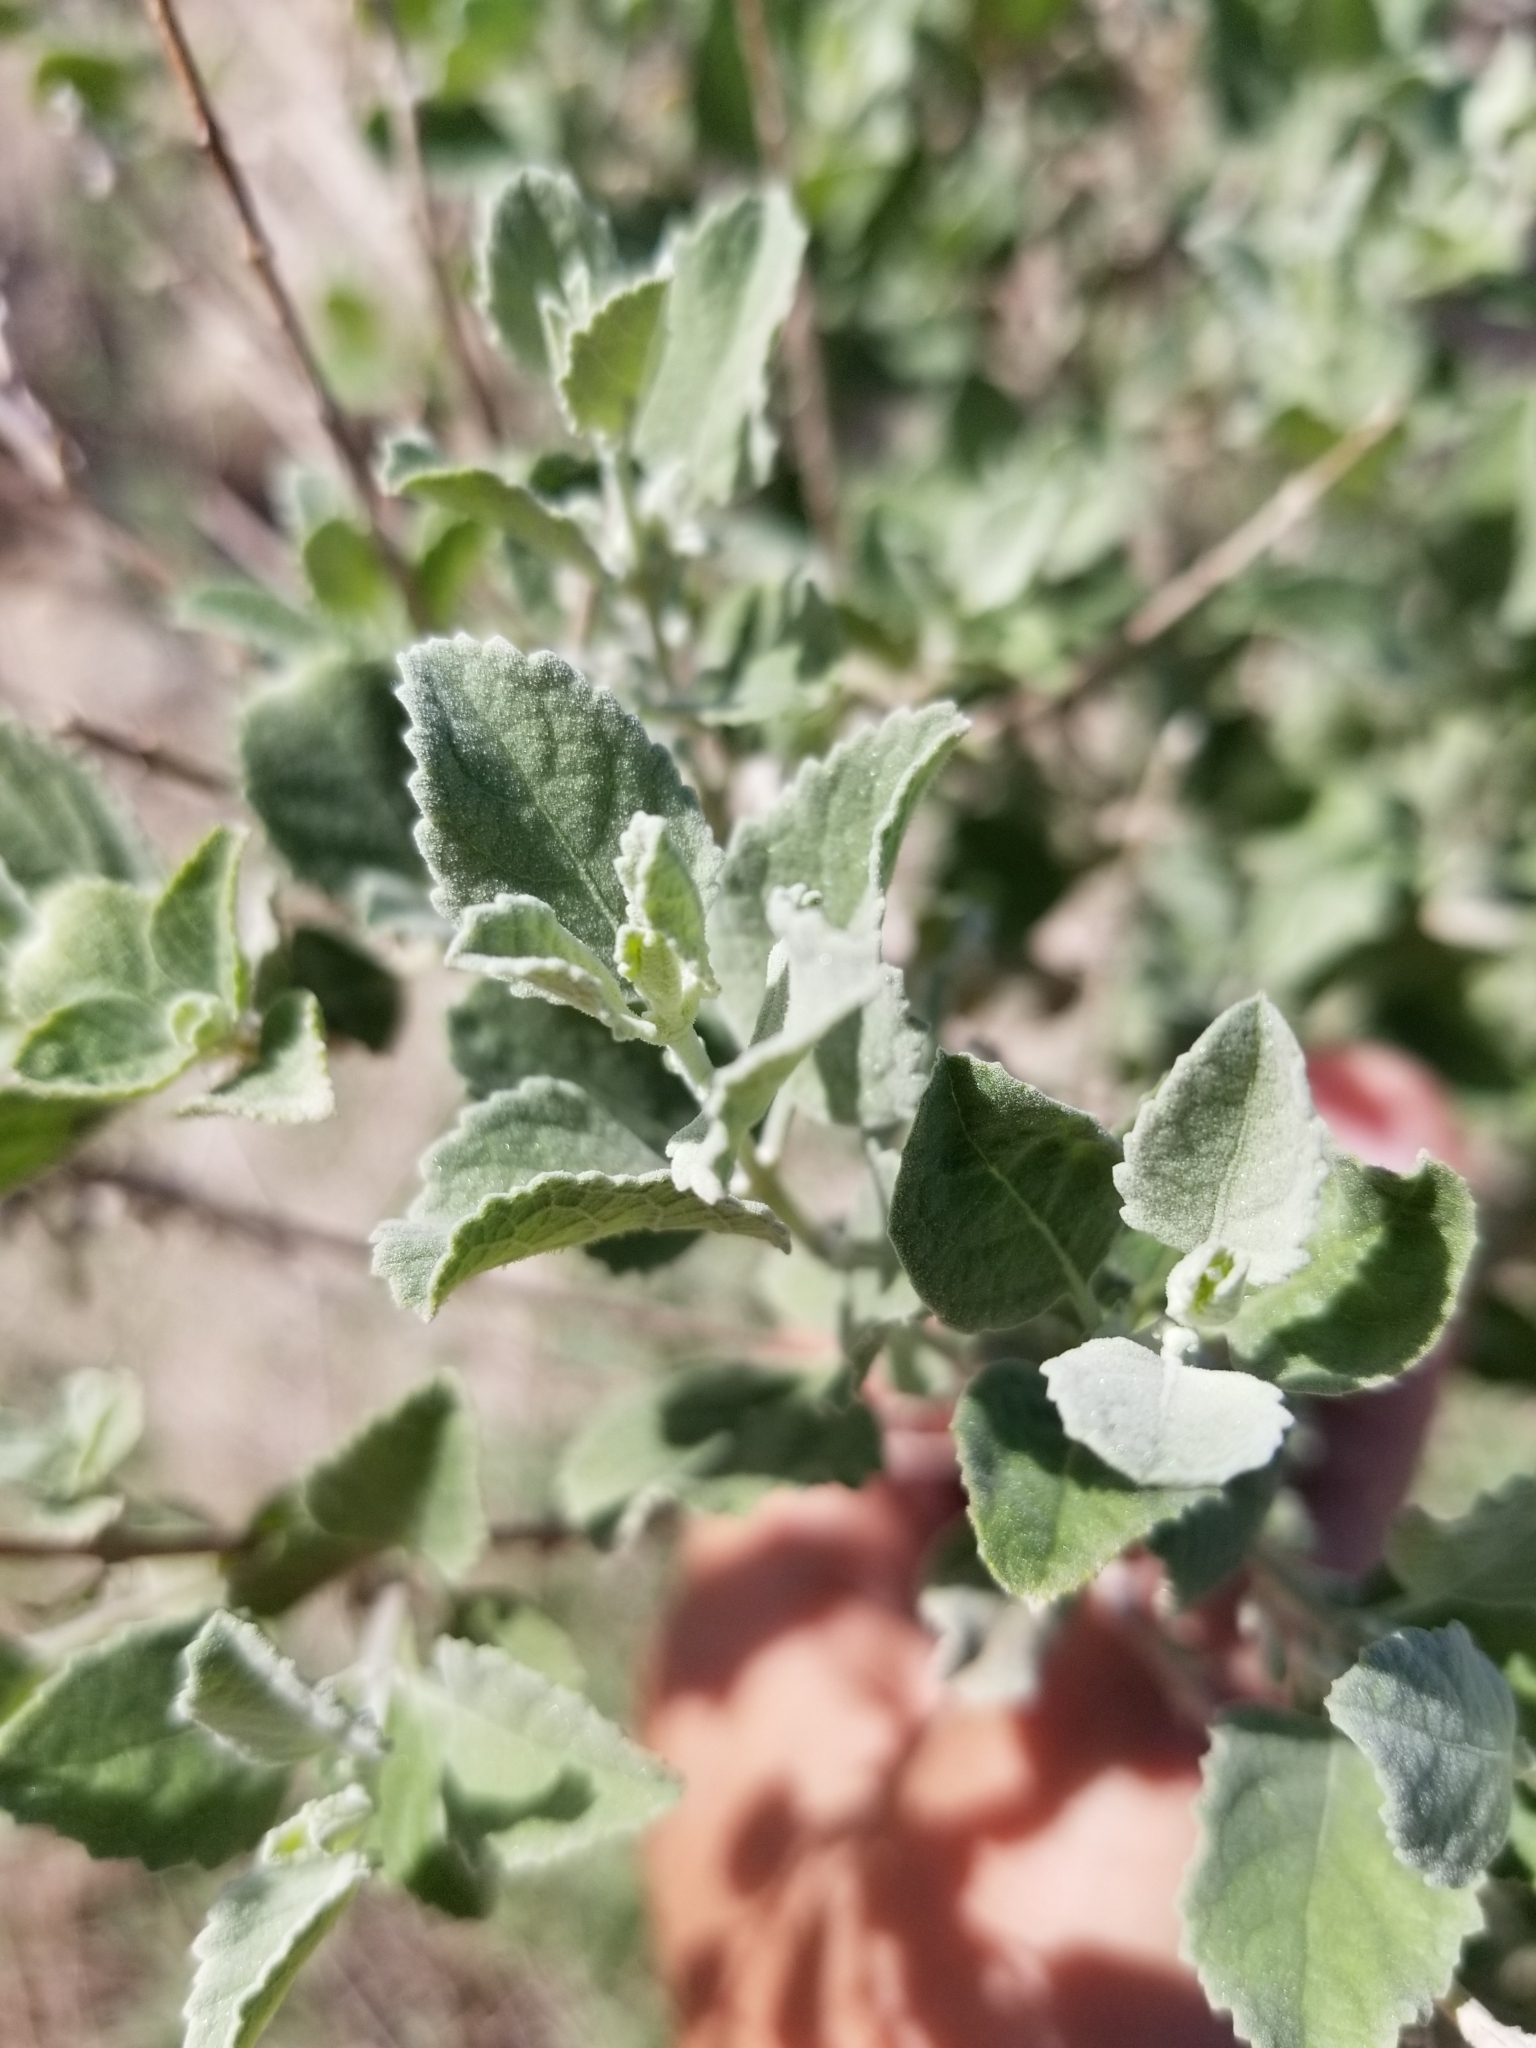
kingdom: Plantae
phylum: Tracheophyta
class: Magnoliopsida
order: Lamiales
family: Lamiaceae
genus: Condea
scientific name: Condea emoryi
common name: Chia
